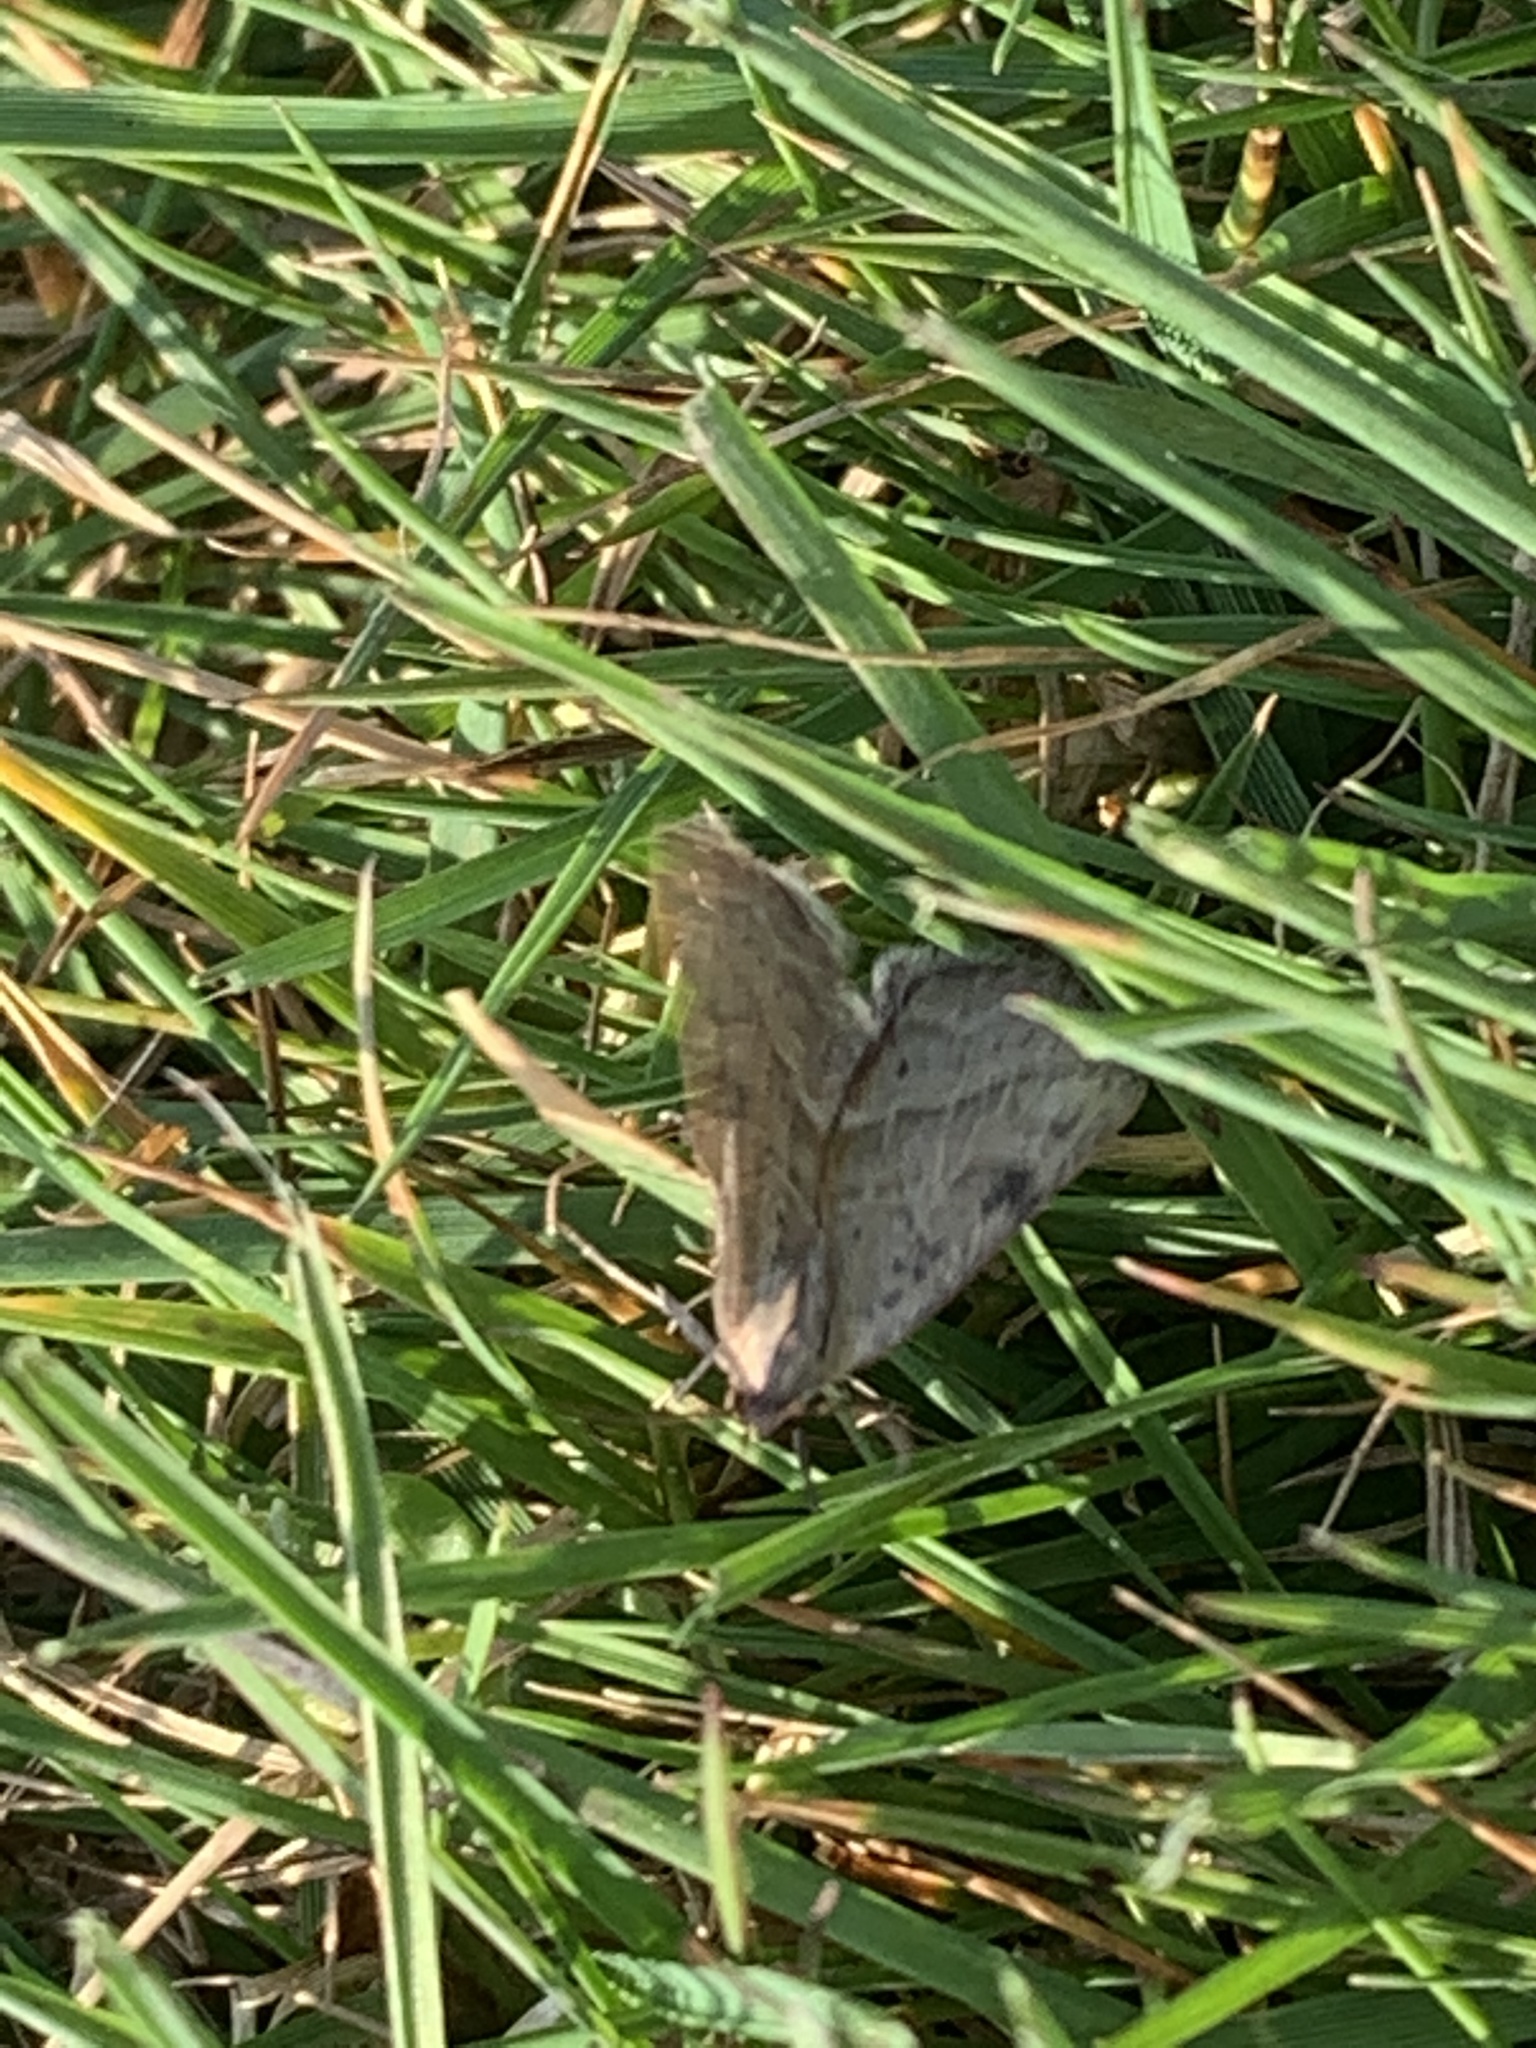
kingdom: Animalia
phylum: Arthropoda
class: Insecta
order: Lepidoptera
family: Noctuidae
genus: Galgula
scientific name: Galgula partita
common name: Wedgeling
